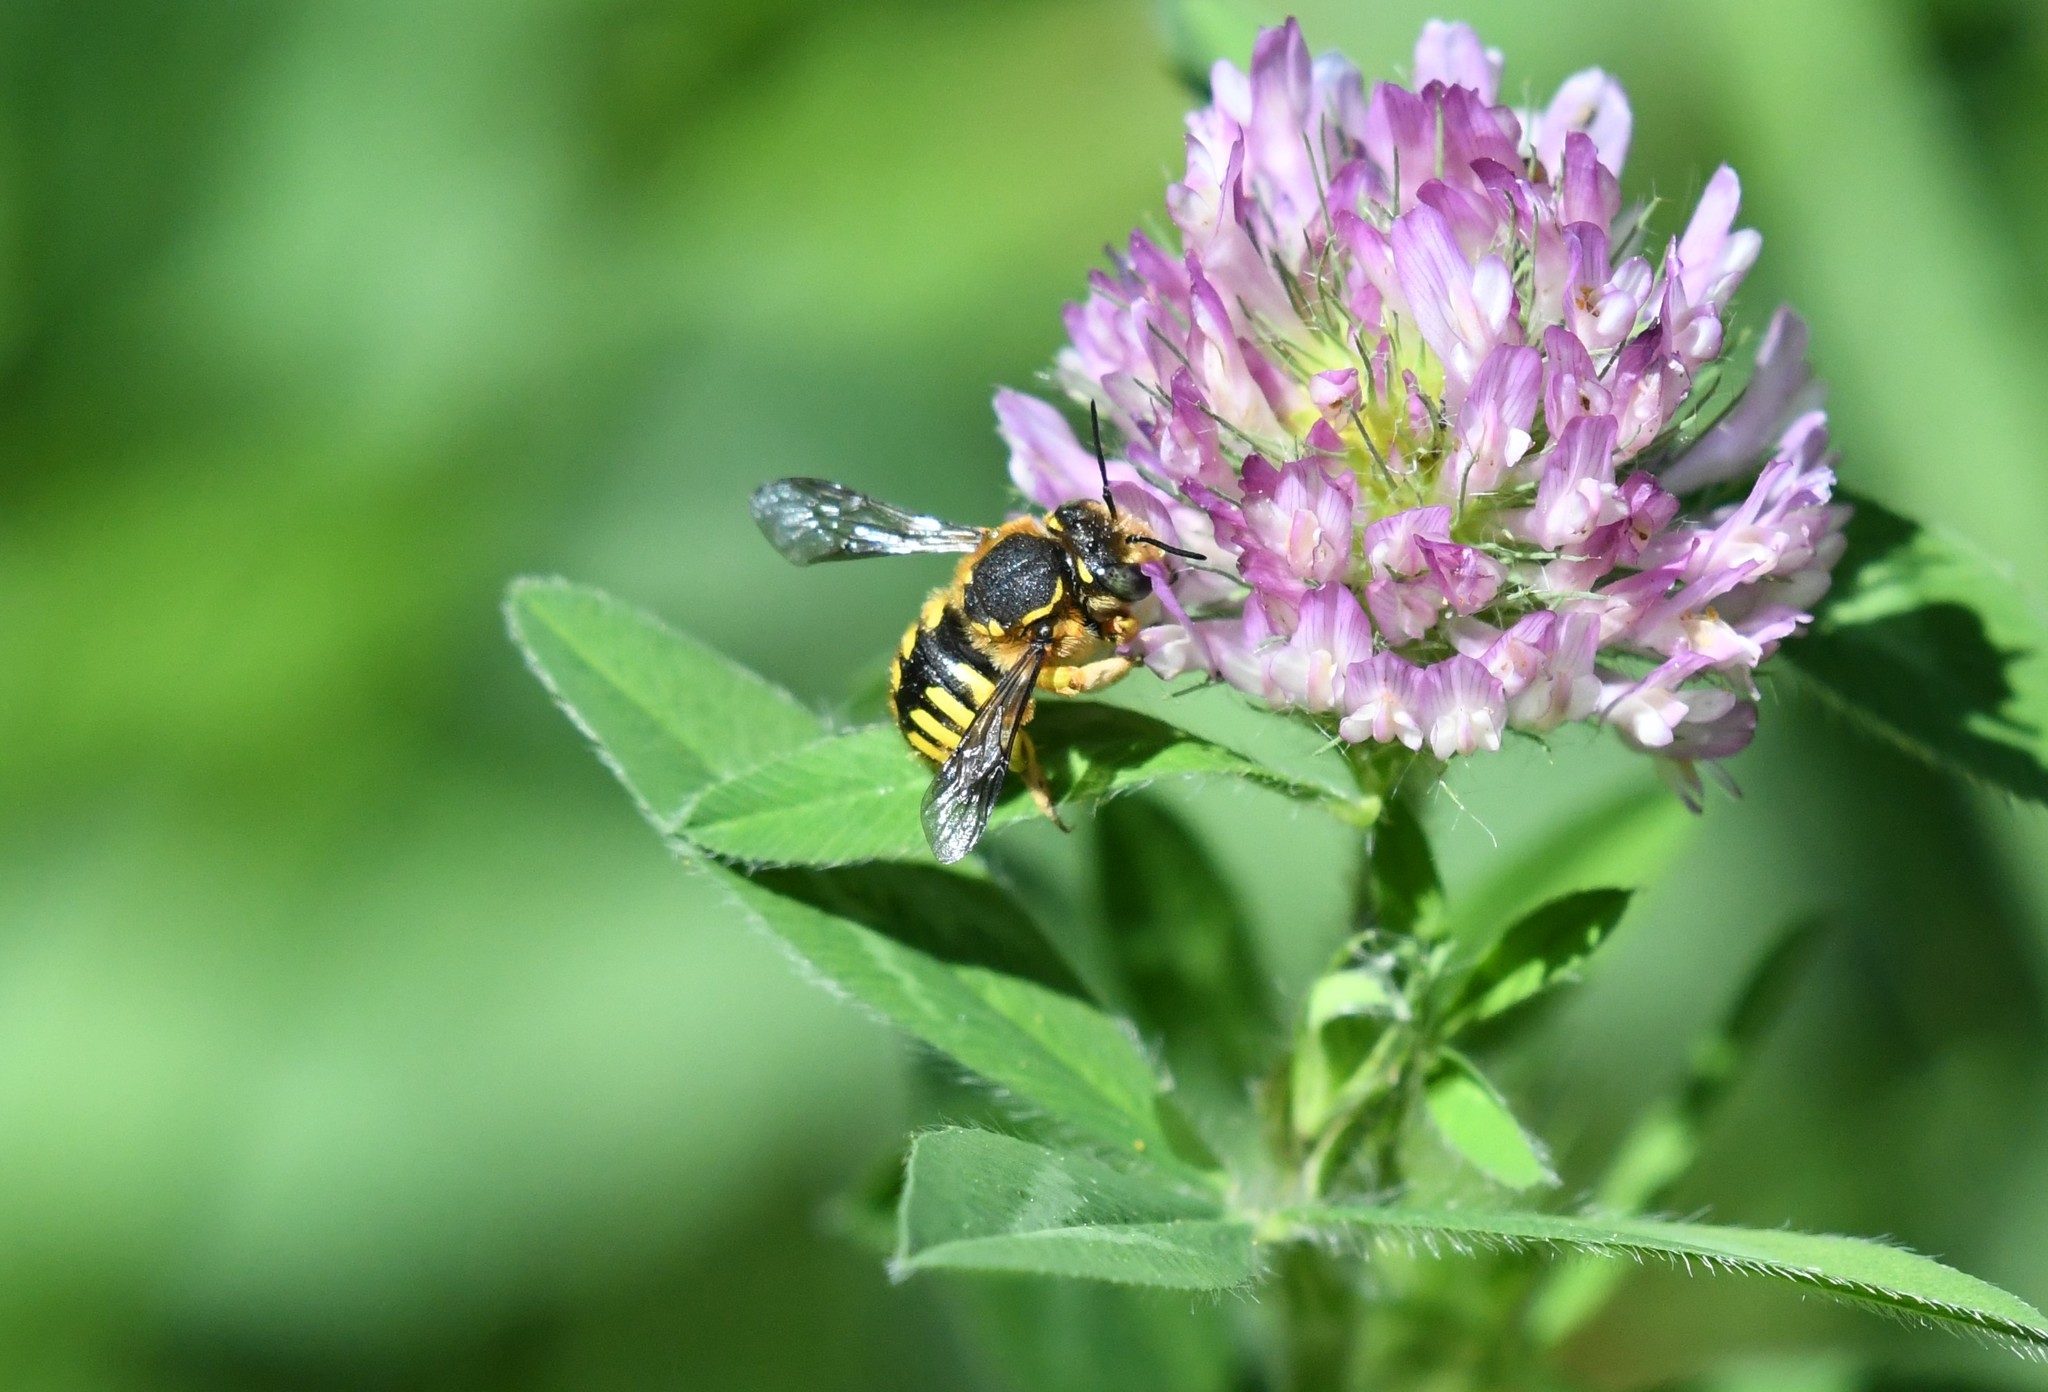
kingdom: Animalia
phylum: Arthropoda
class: Insecta
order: Hymenoptera
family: Megachilidae
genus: Anthidium
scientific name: Anthidium manicatum
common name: Wool carder bee
